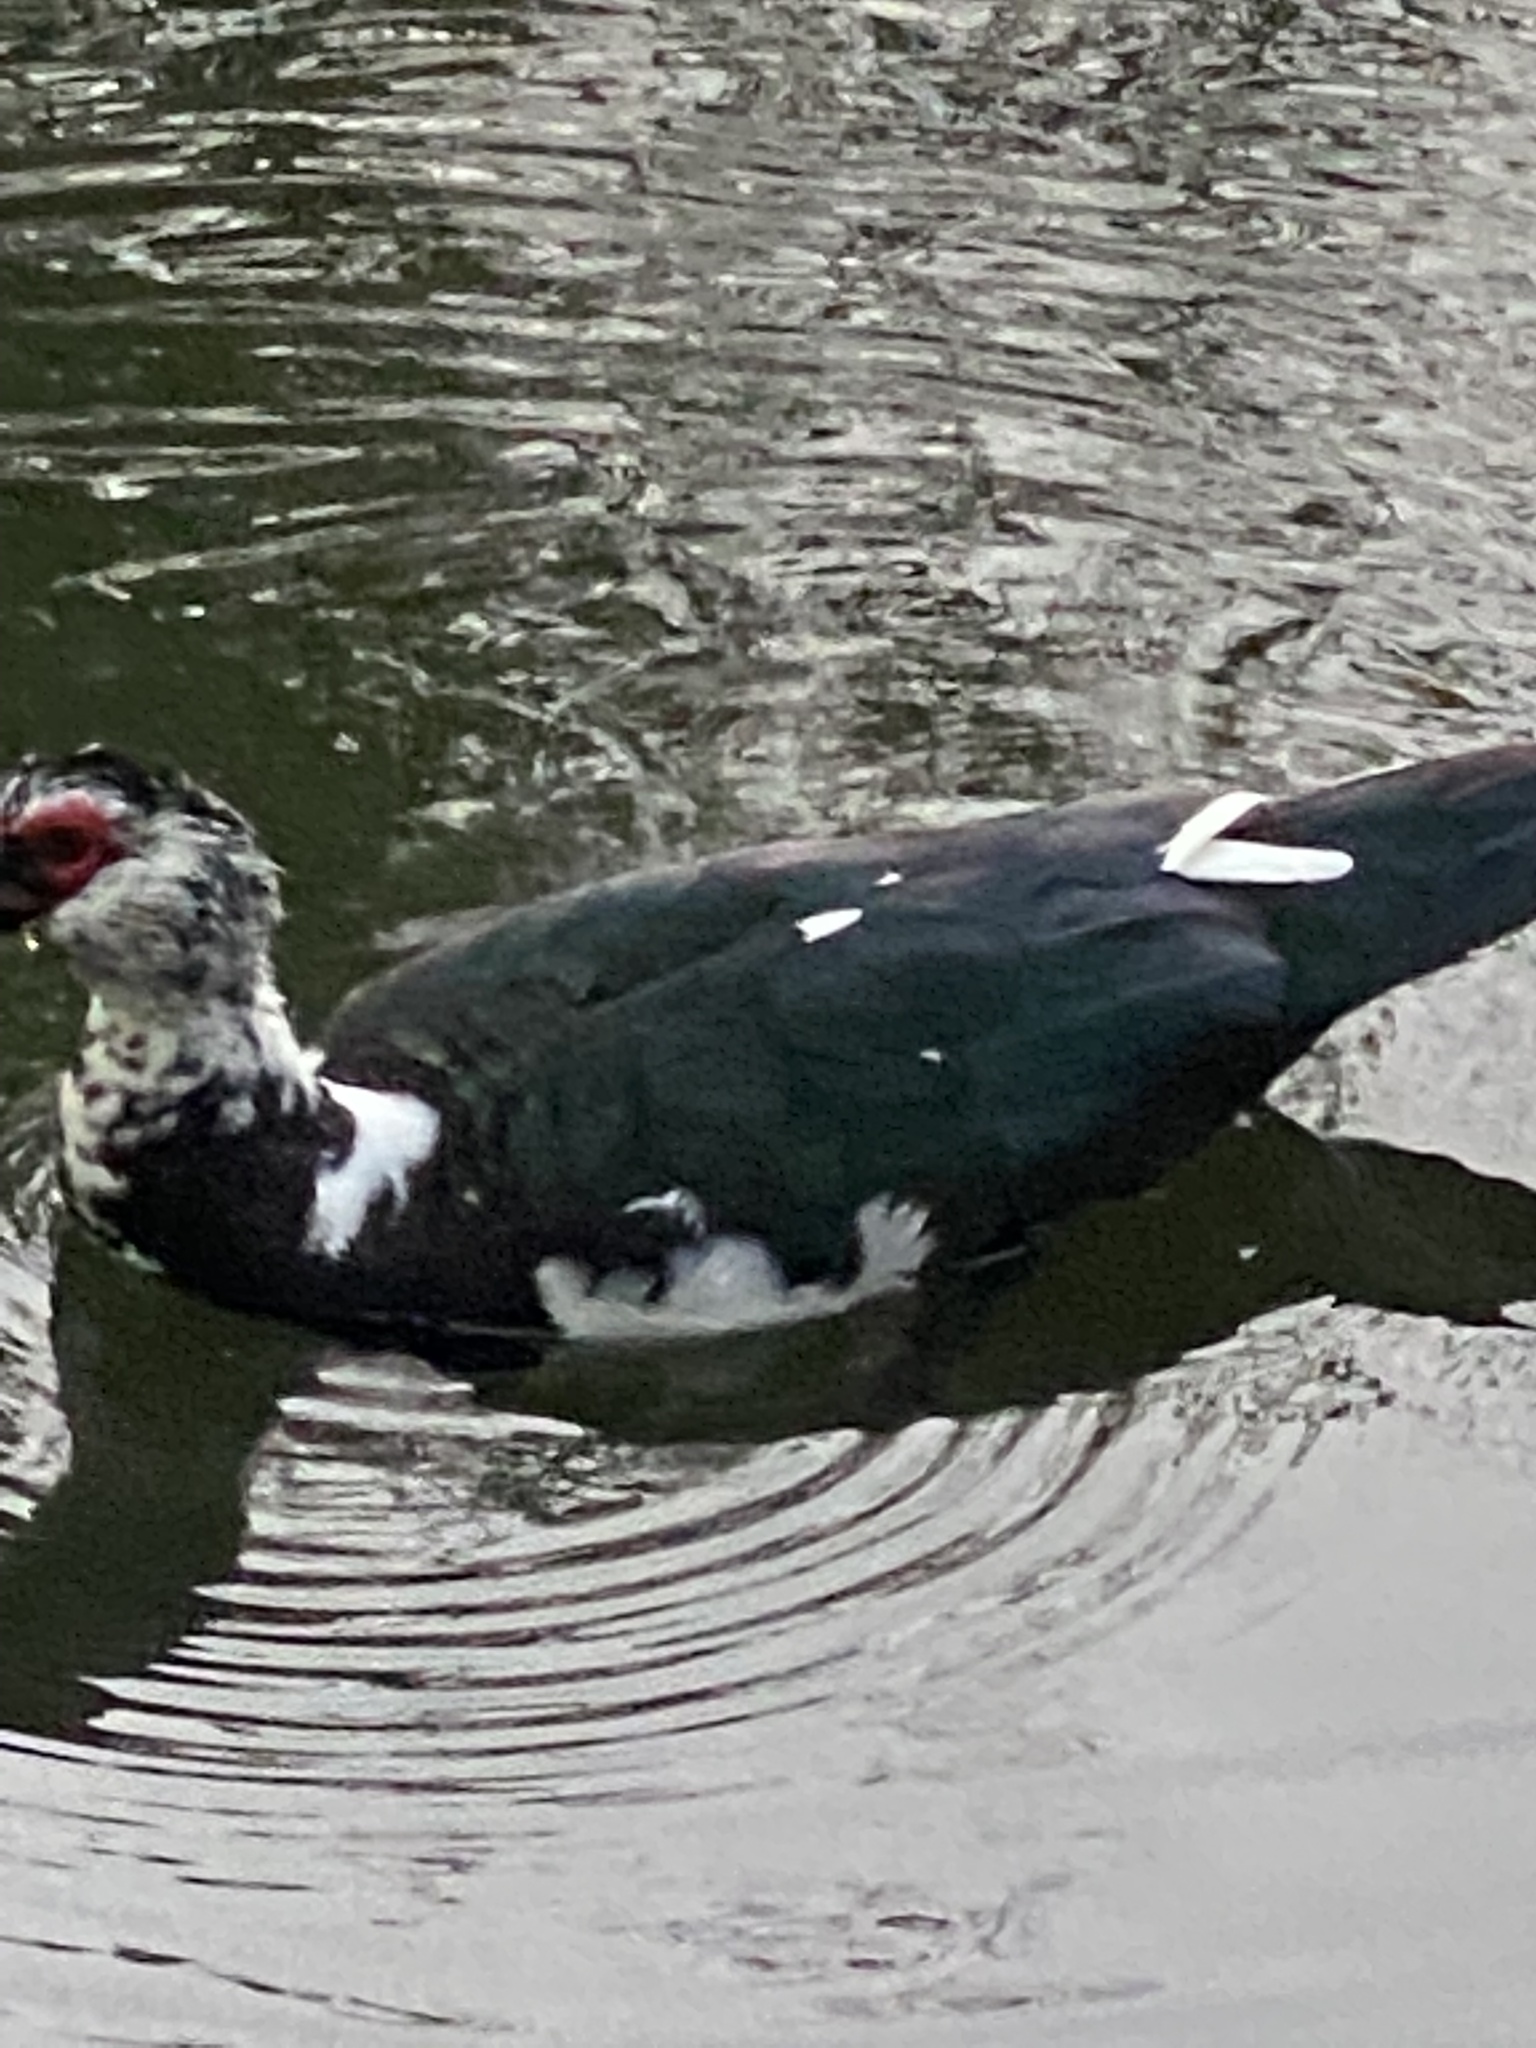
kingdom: Animalia
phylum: Chordata
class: Aves
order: Anseriformes
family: Anatidae
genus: Cairina
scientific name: Cairina moschata
